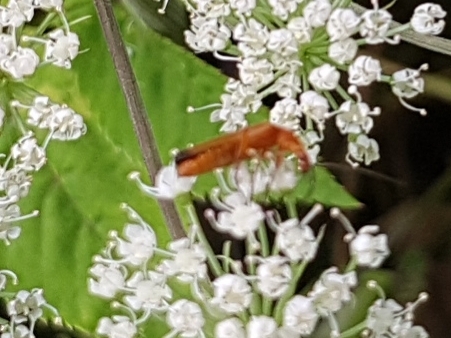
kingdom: Animalia
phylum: Arthropoda
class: Insecta
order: Coleoptera
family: Cantharidae
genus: Rhagonycha
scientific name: Rhagonycha fulva
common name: Common red soldier beetle
